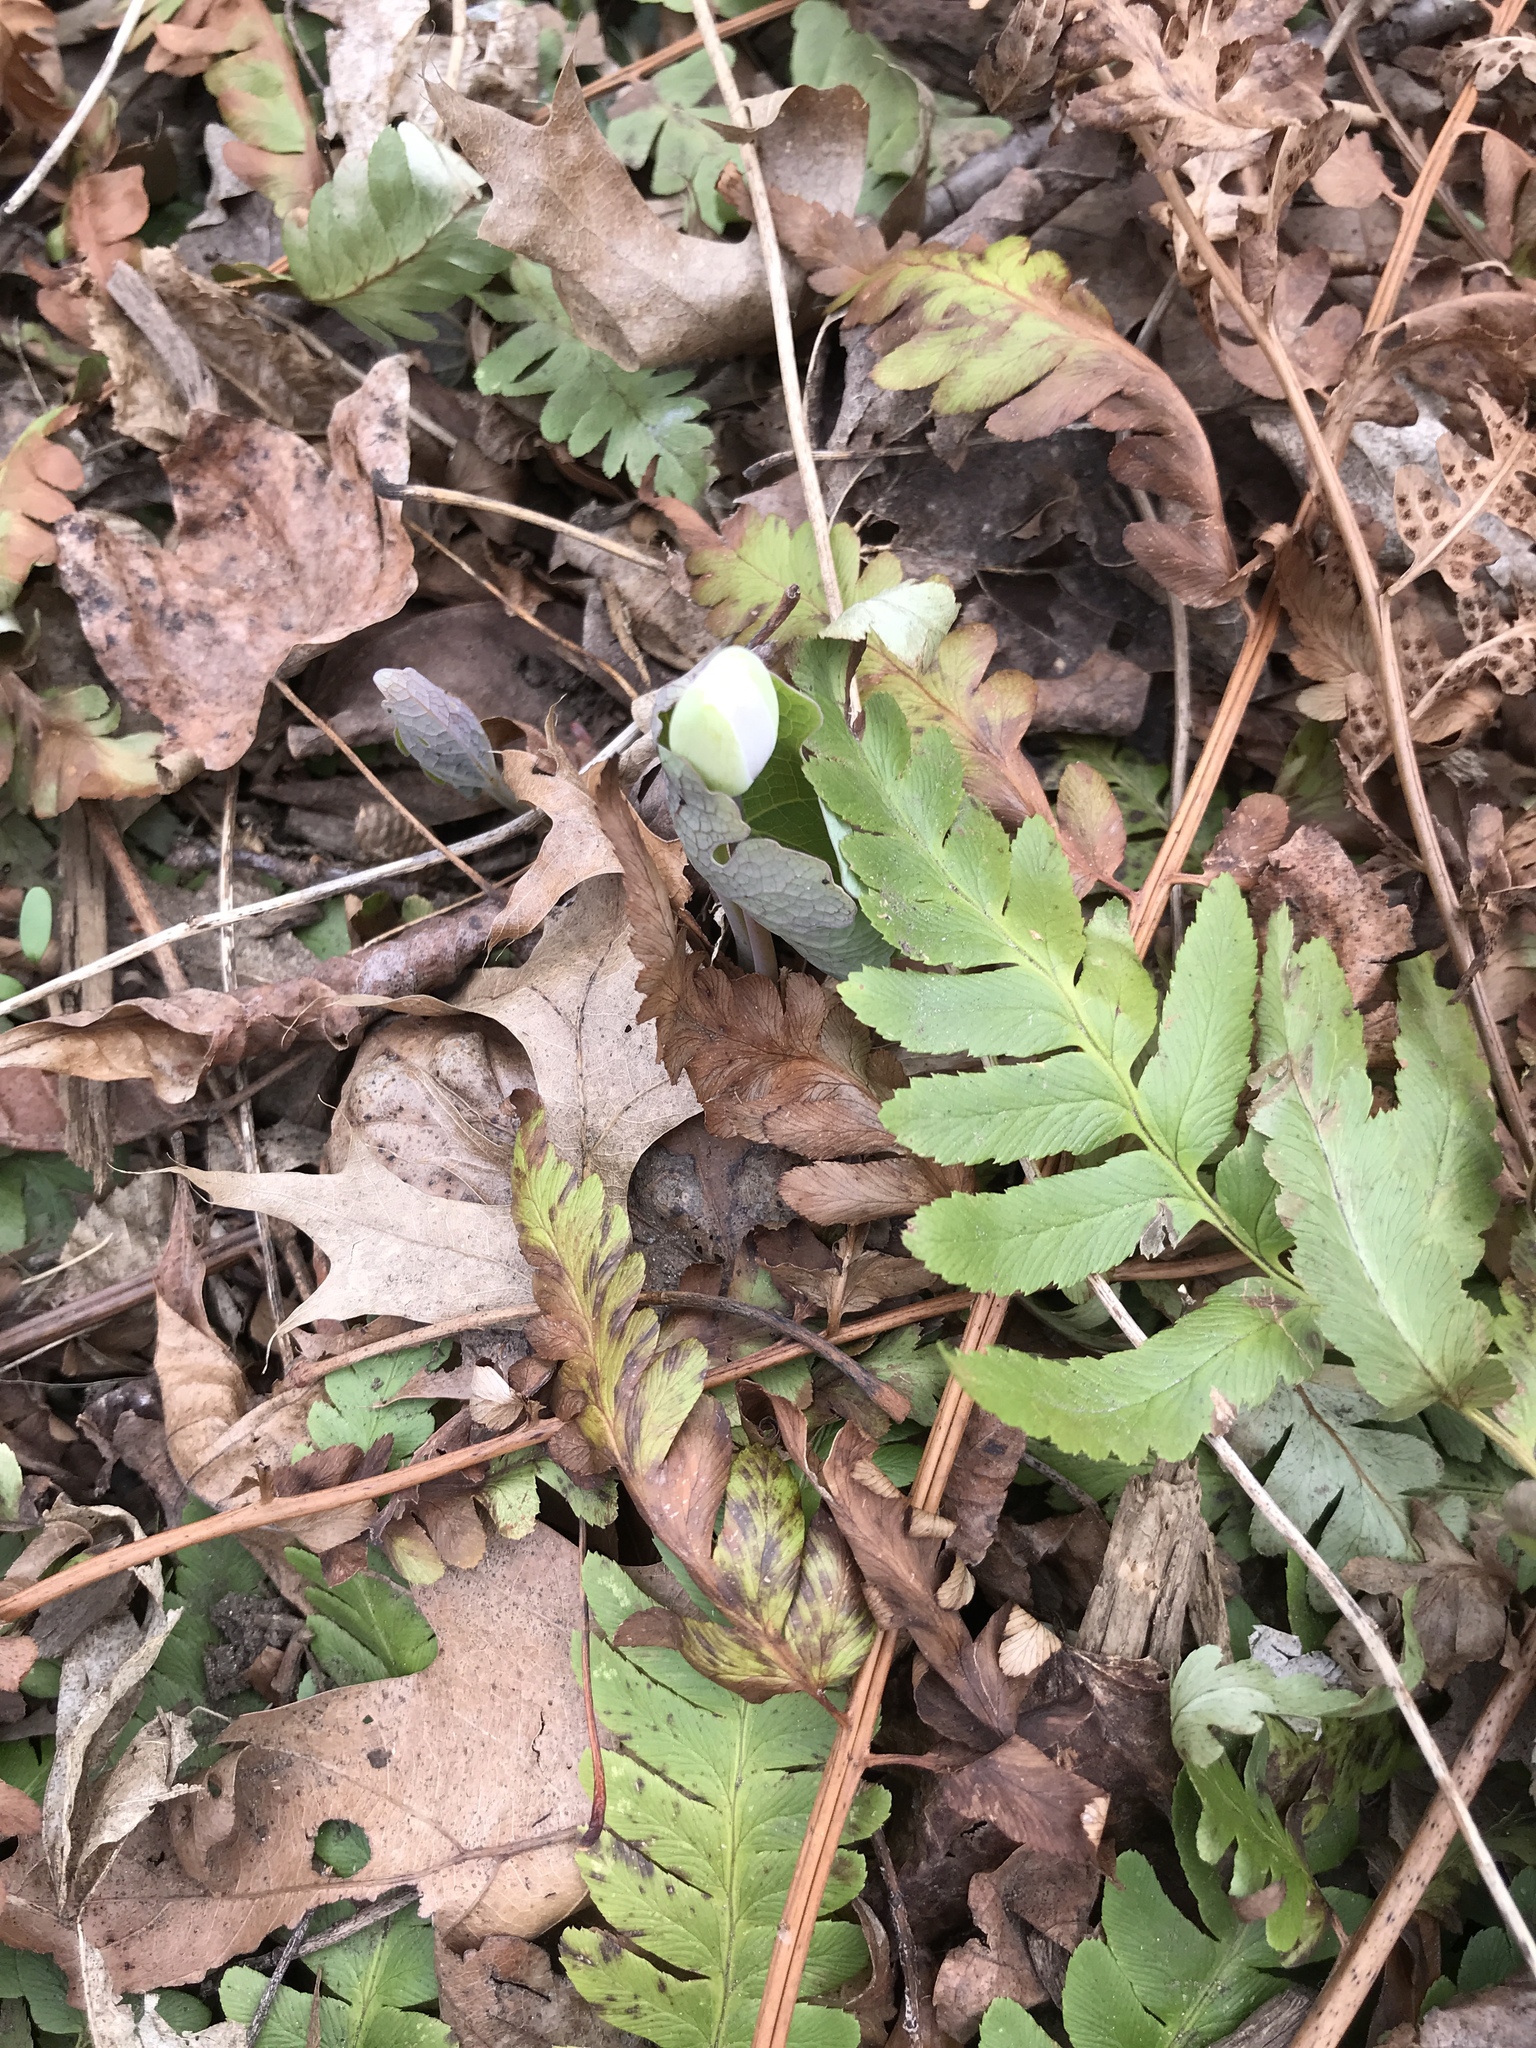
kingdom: Plantae
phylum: Tracheophyta
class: Magnoliopsida
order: Ranunculales
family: Papaveraceae
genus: Sanguinaria
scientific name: Sanguinaria canadensis
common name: Bloodroot
